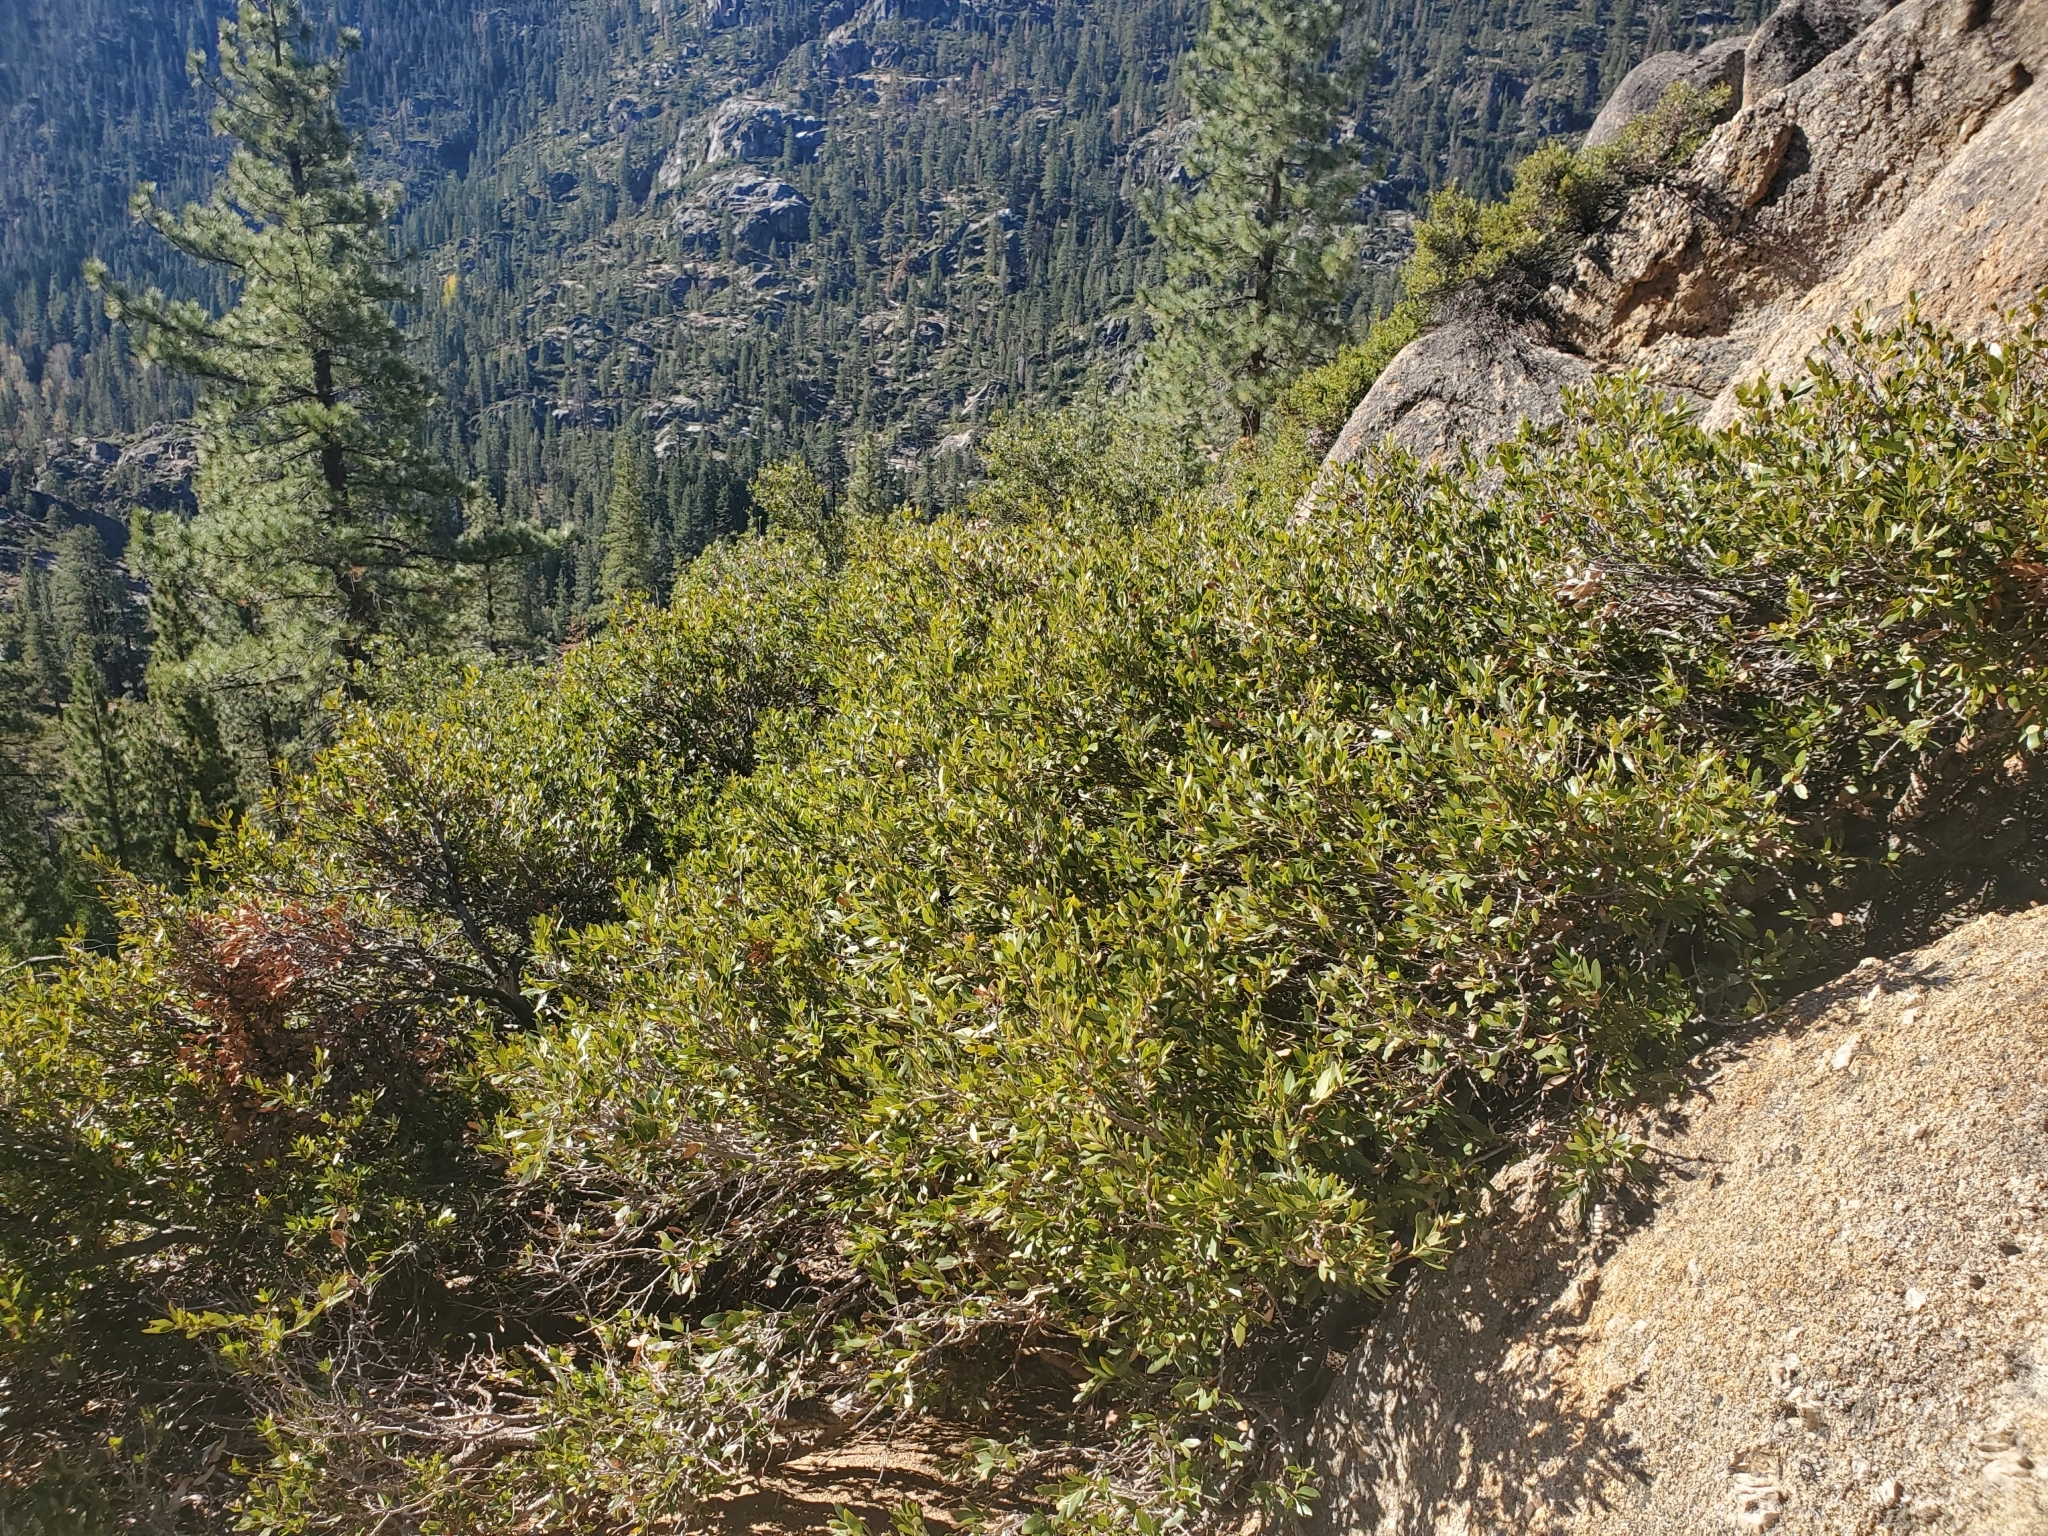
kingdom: Plantae
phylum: Tracheophyta
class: Magnoliopsida
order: Fagales
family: Fagaceae
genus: Quercus
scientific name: Quercus vacciniifolia
